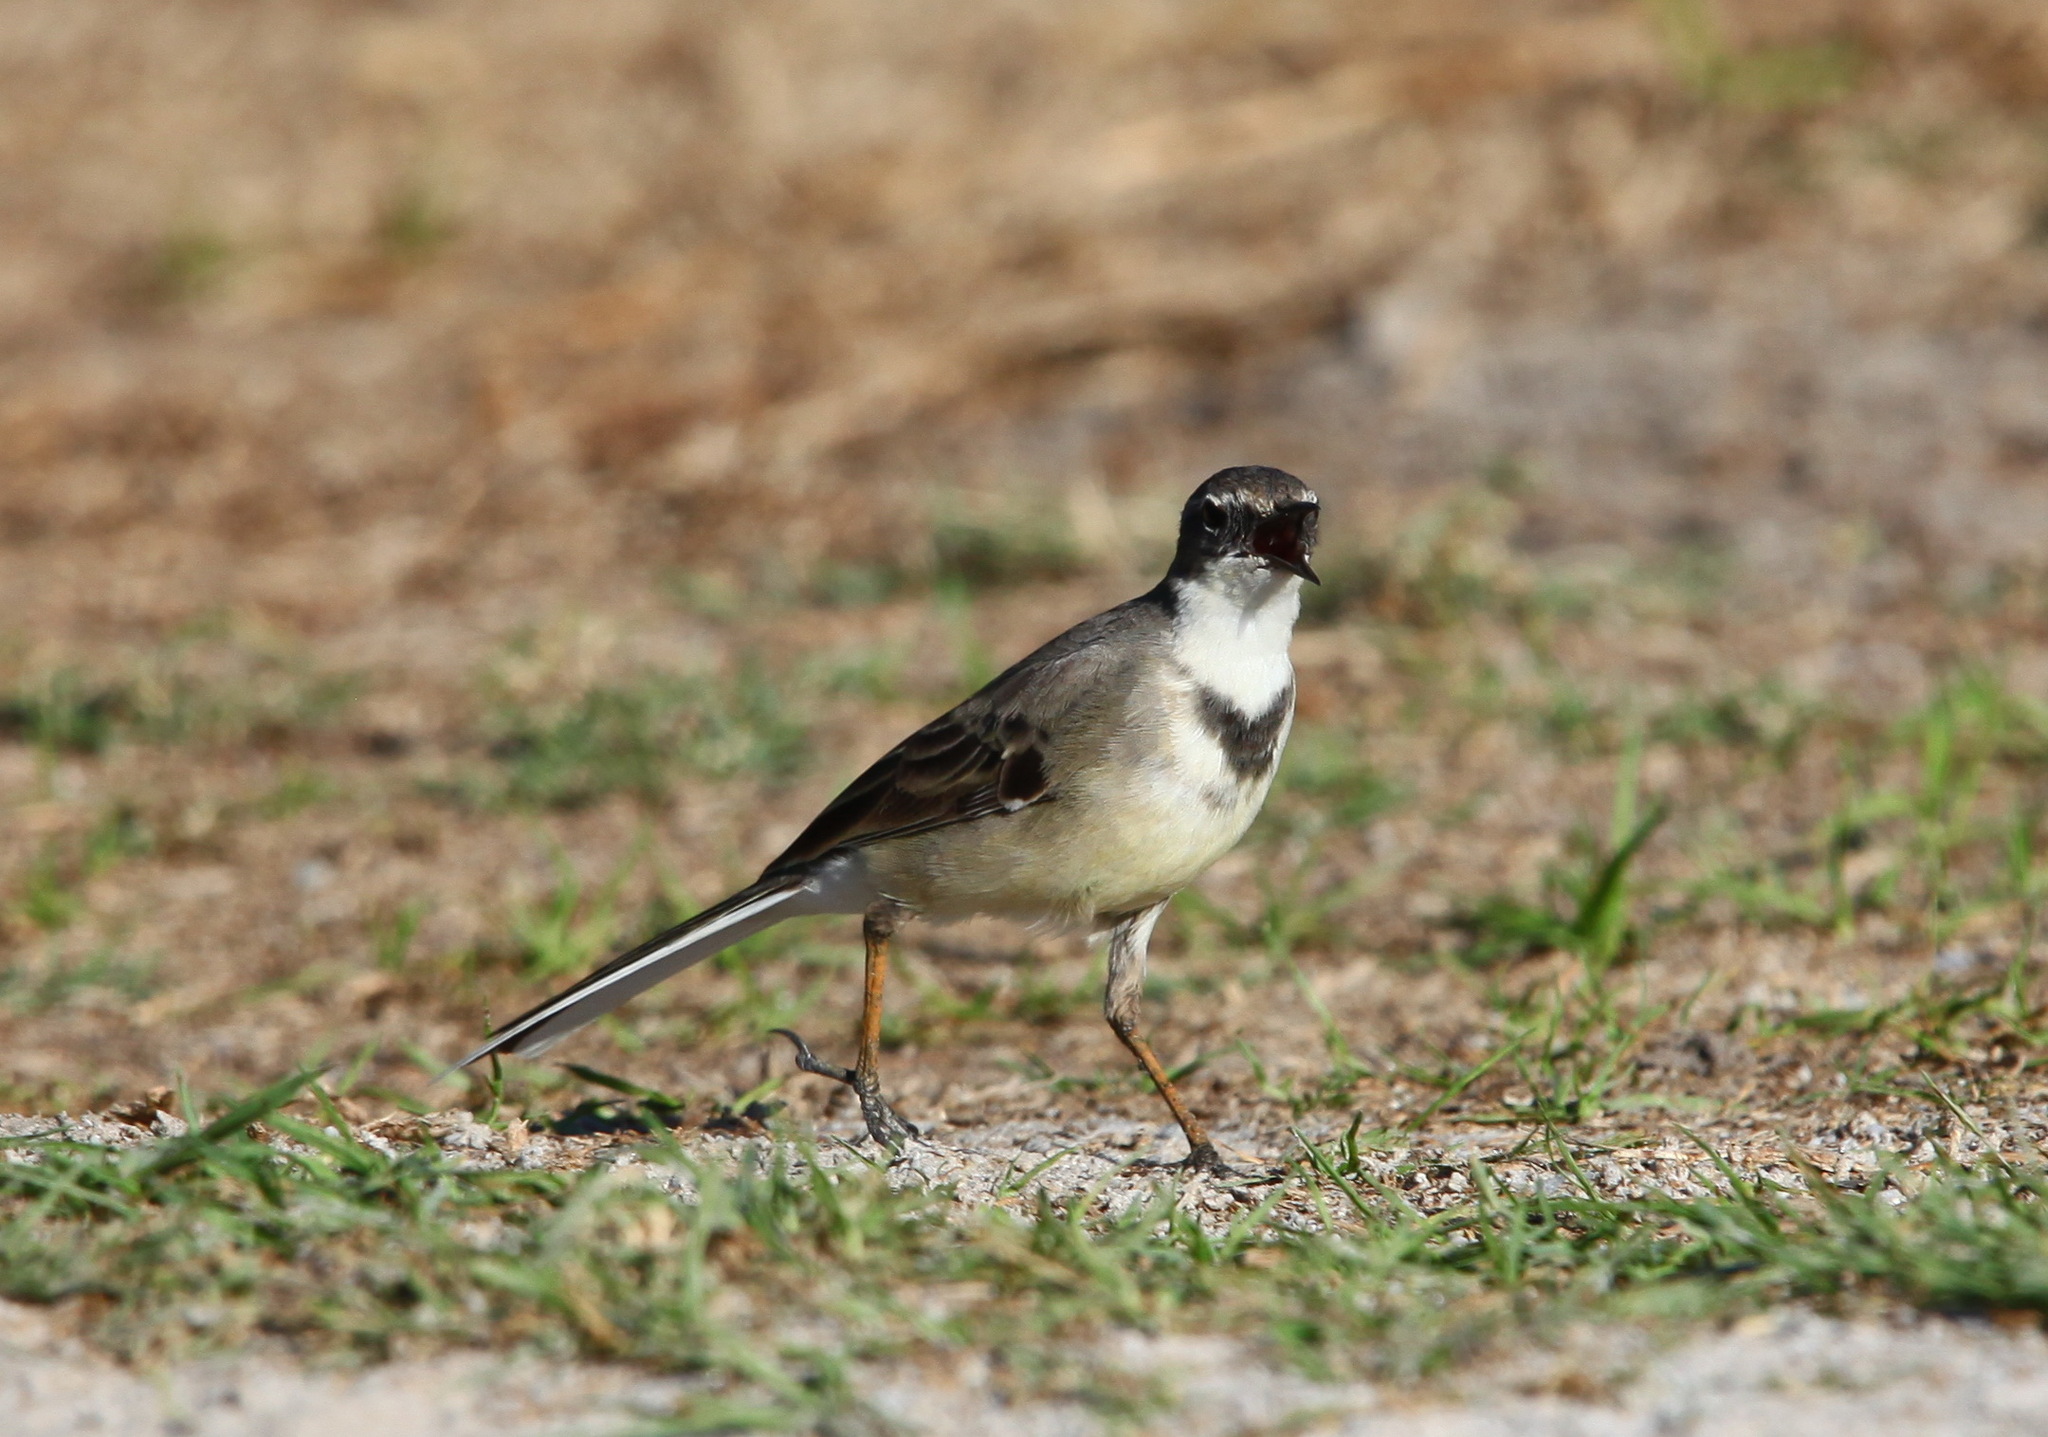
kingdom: Animalia
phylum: Chordata
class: Aves
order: Passeriformes
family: Motacillidae
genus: Motacilla
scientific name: Motacilla capensis
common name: Cape wagtail
